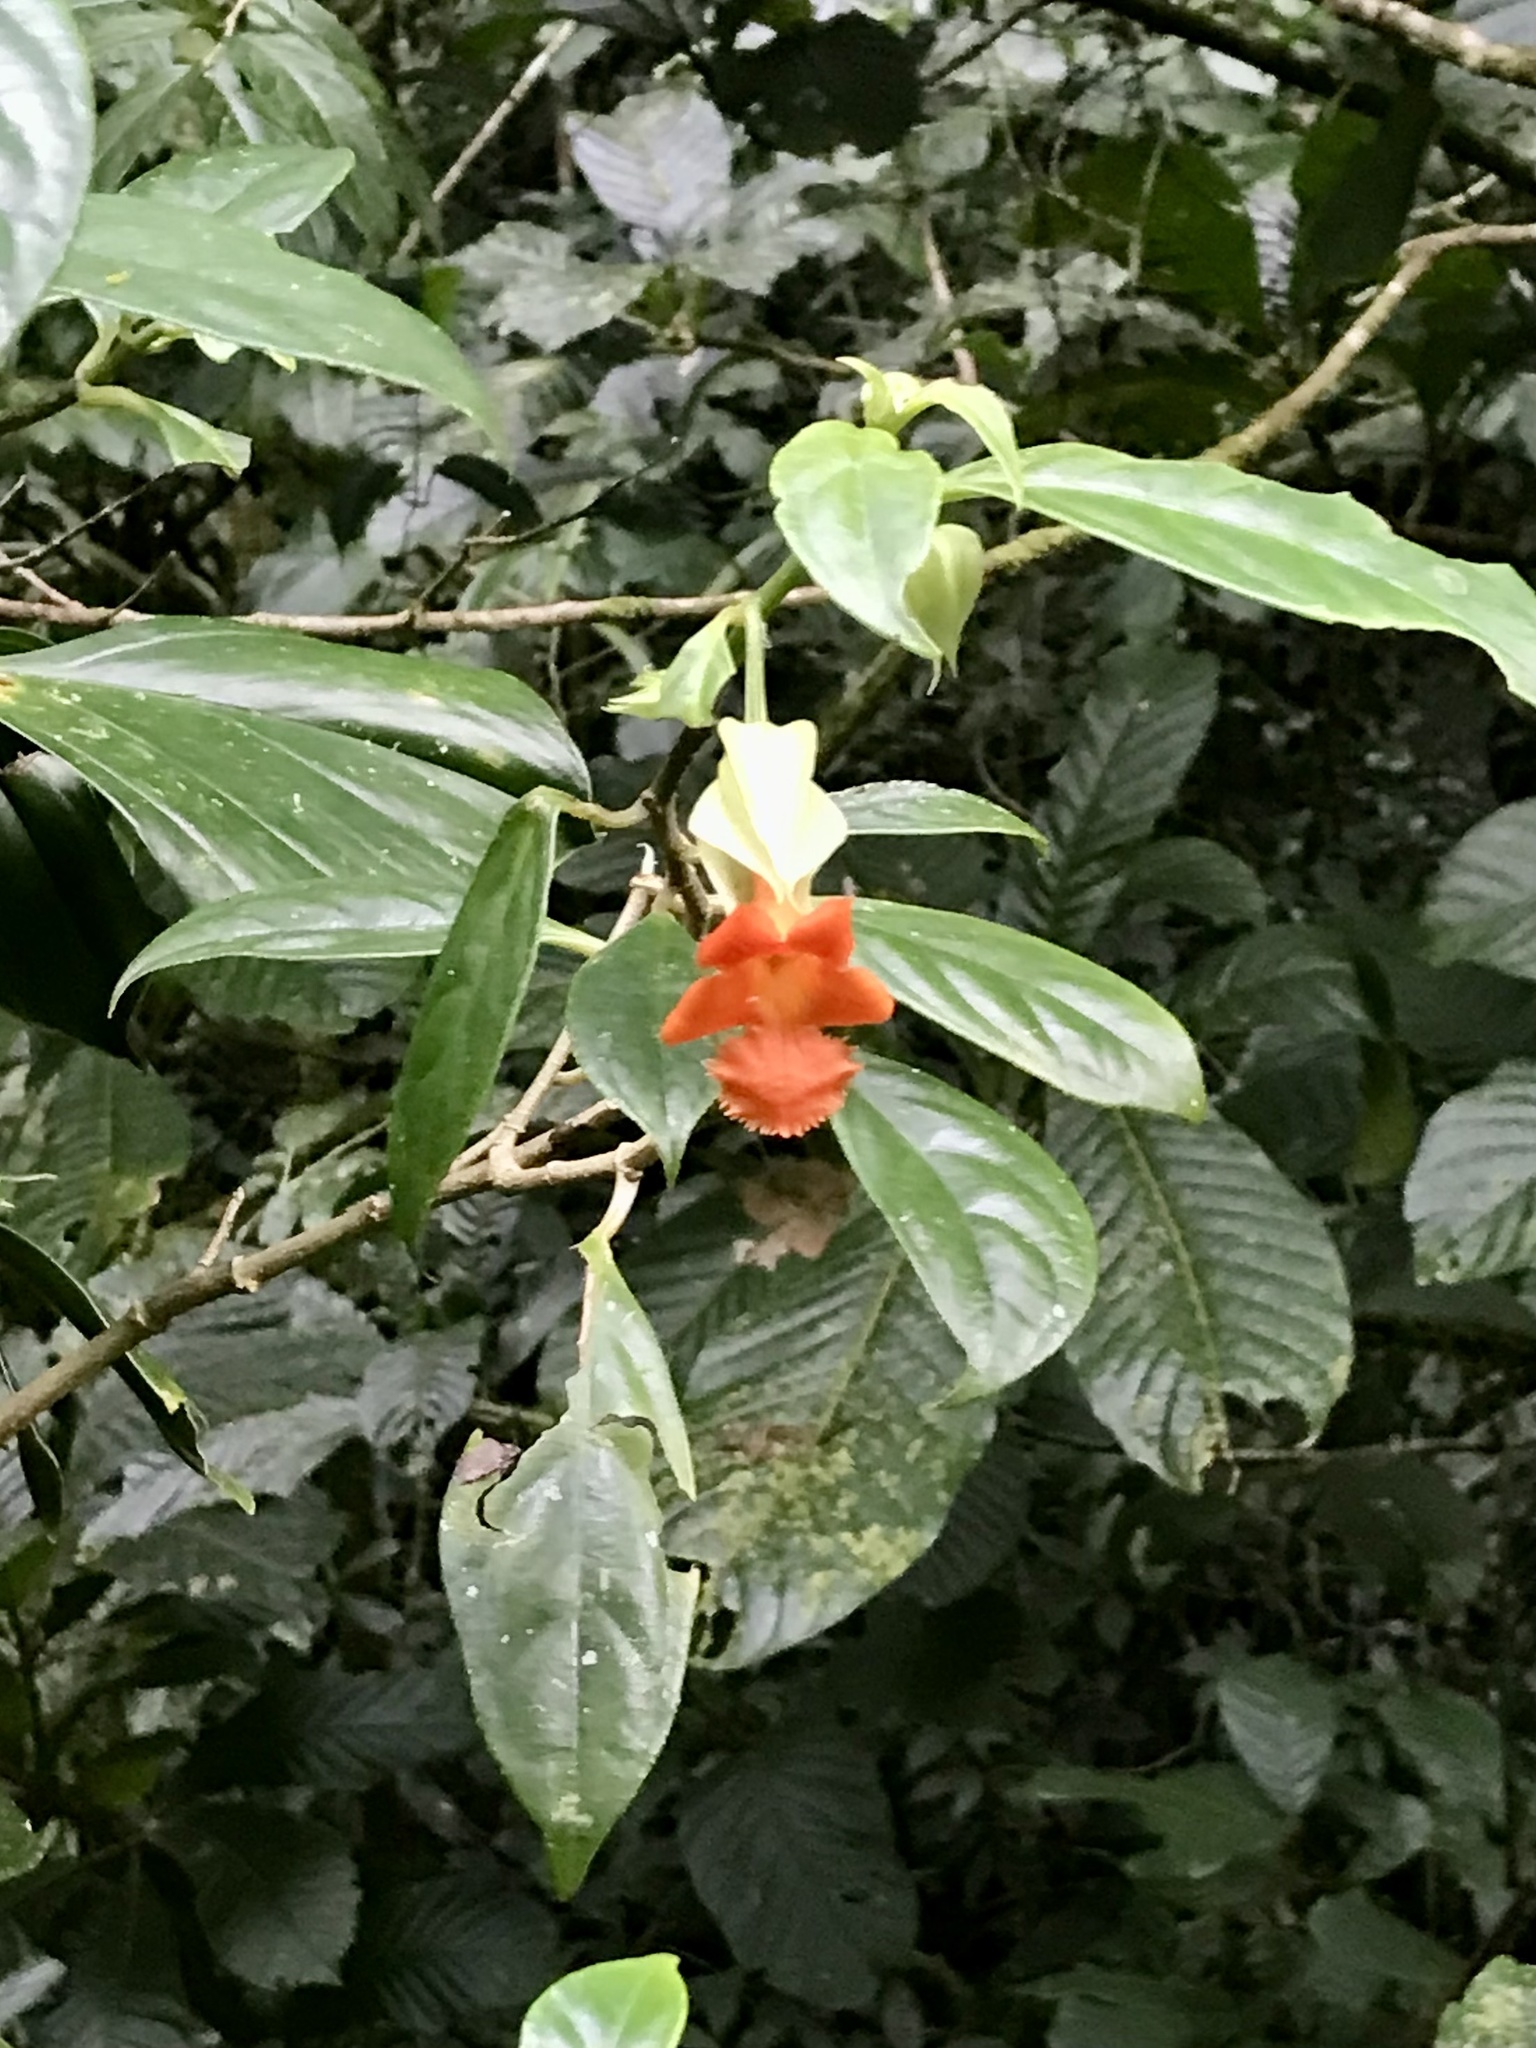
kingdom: Plantae
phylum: Tracheophyta
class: Magnoliopsida
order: Lamiales
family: Gesneriaceae
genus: Drymonia
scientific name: Drymonia rubra
